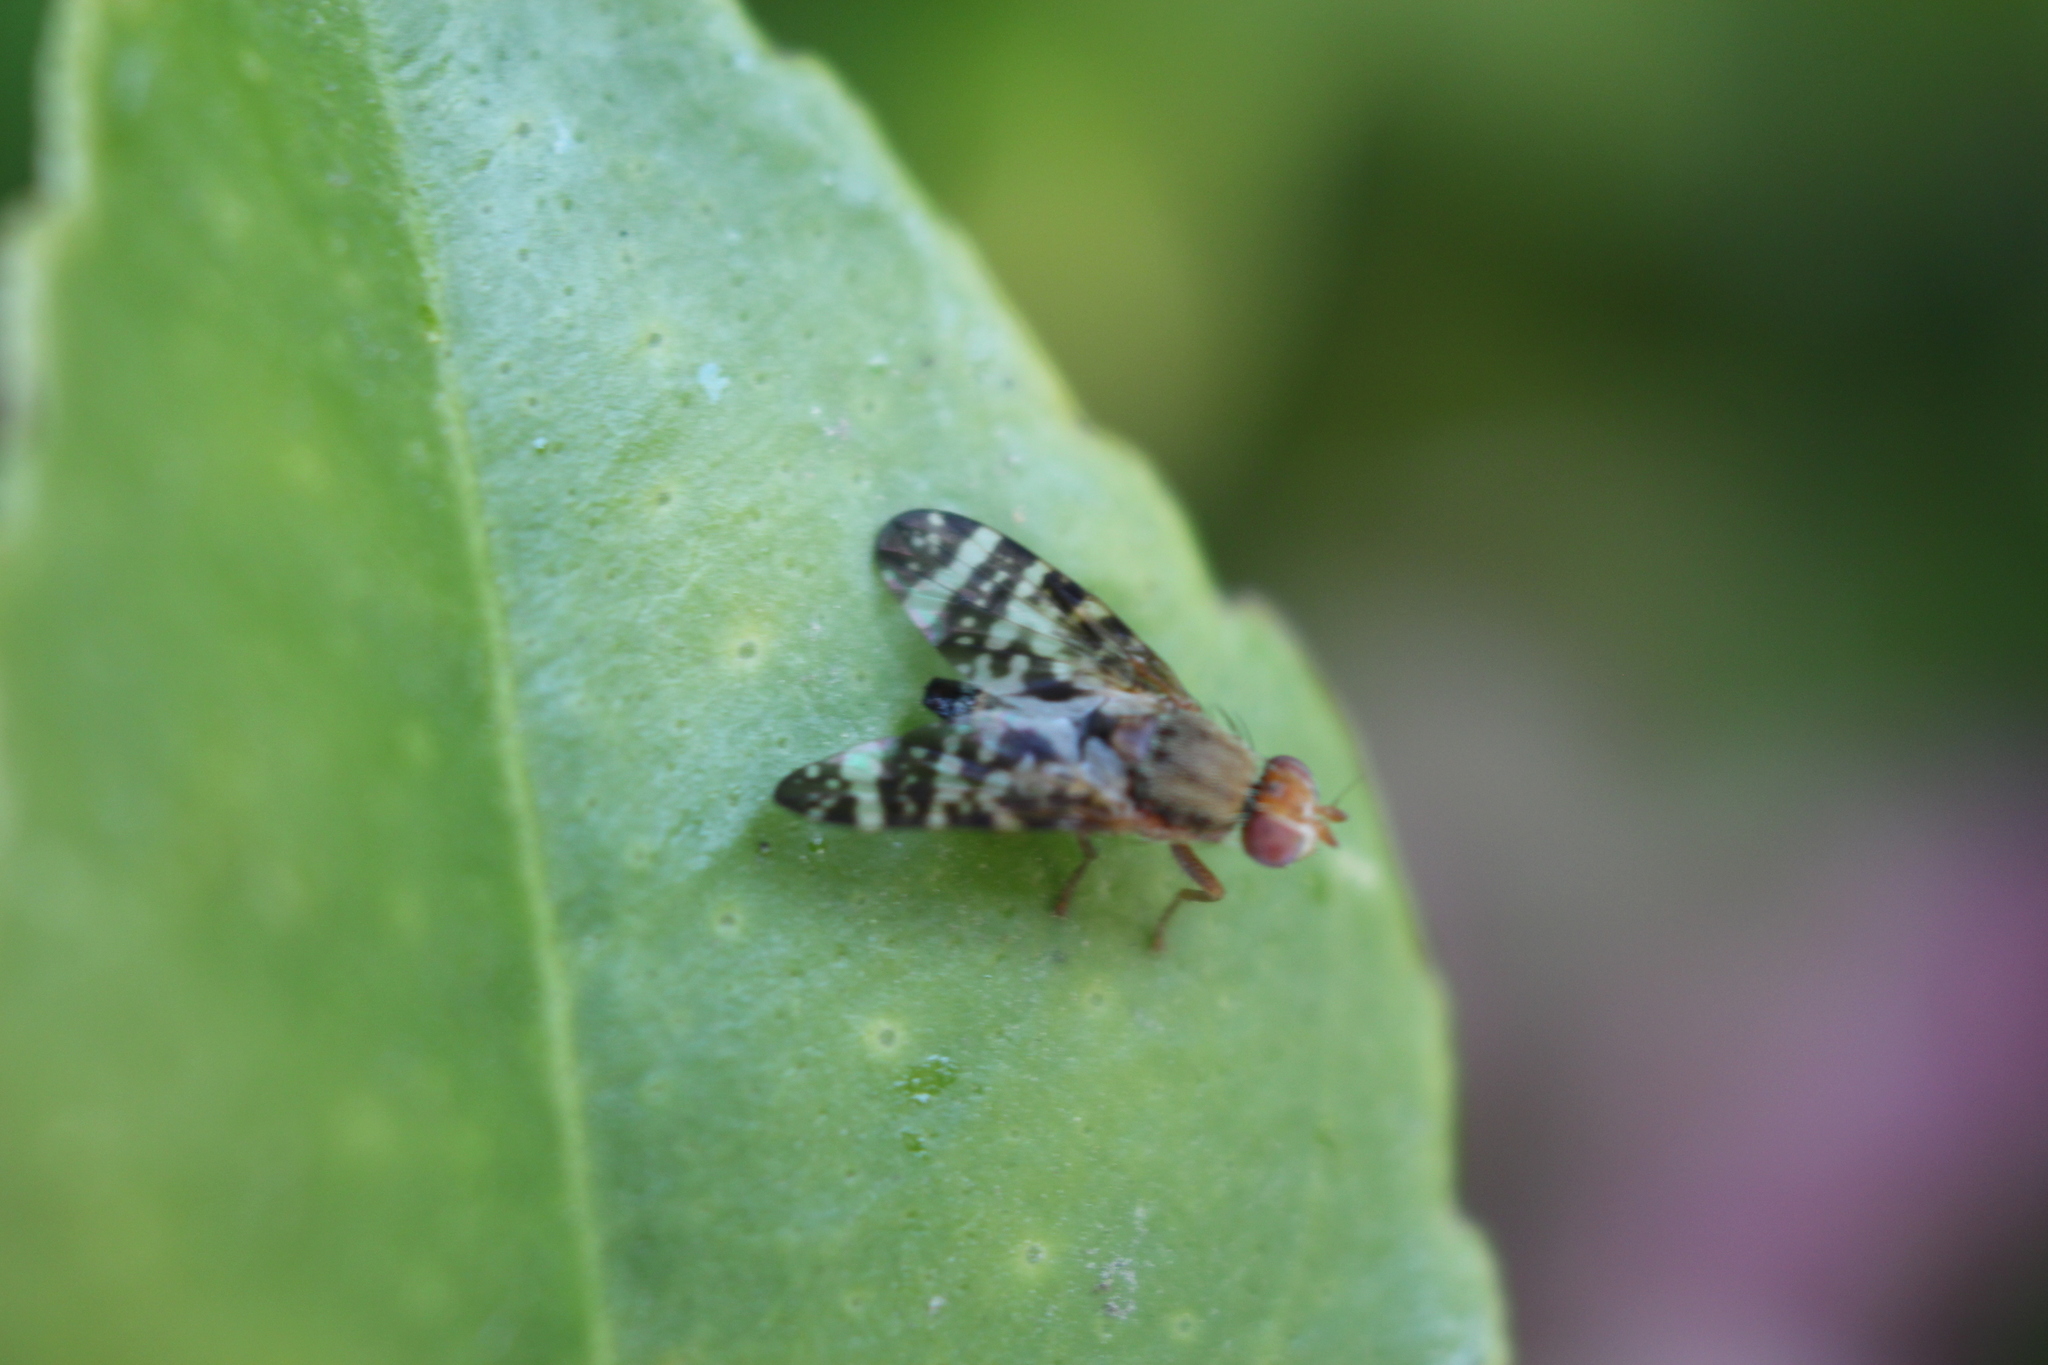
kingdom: Animalia
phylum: Arthropoda
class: Insecta
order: Diptera
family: Tephritidae
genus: Sphenella
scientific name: Sphenella
